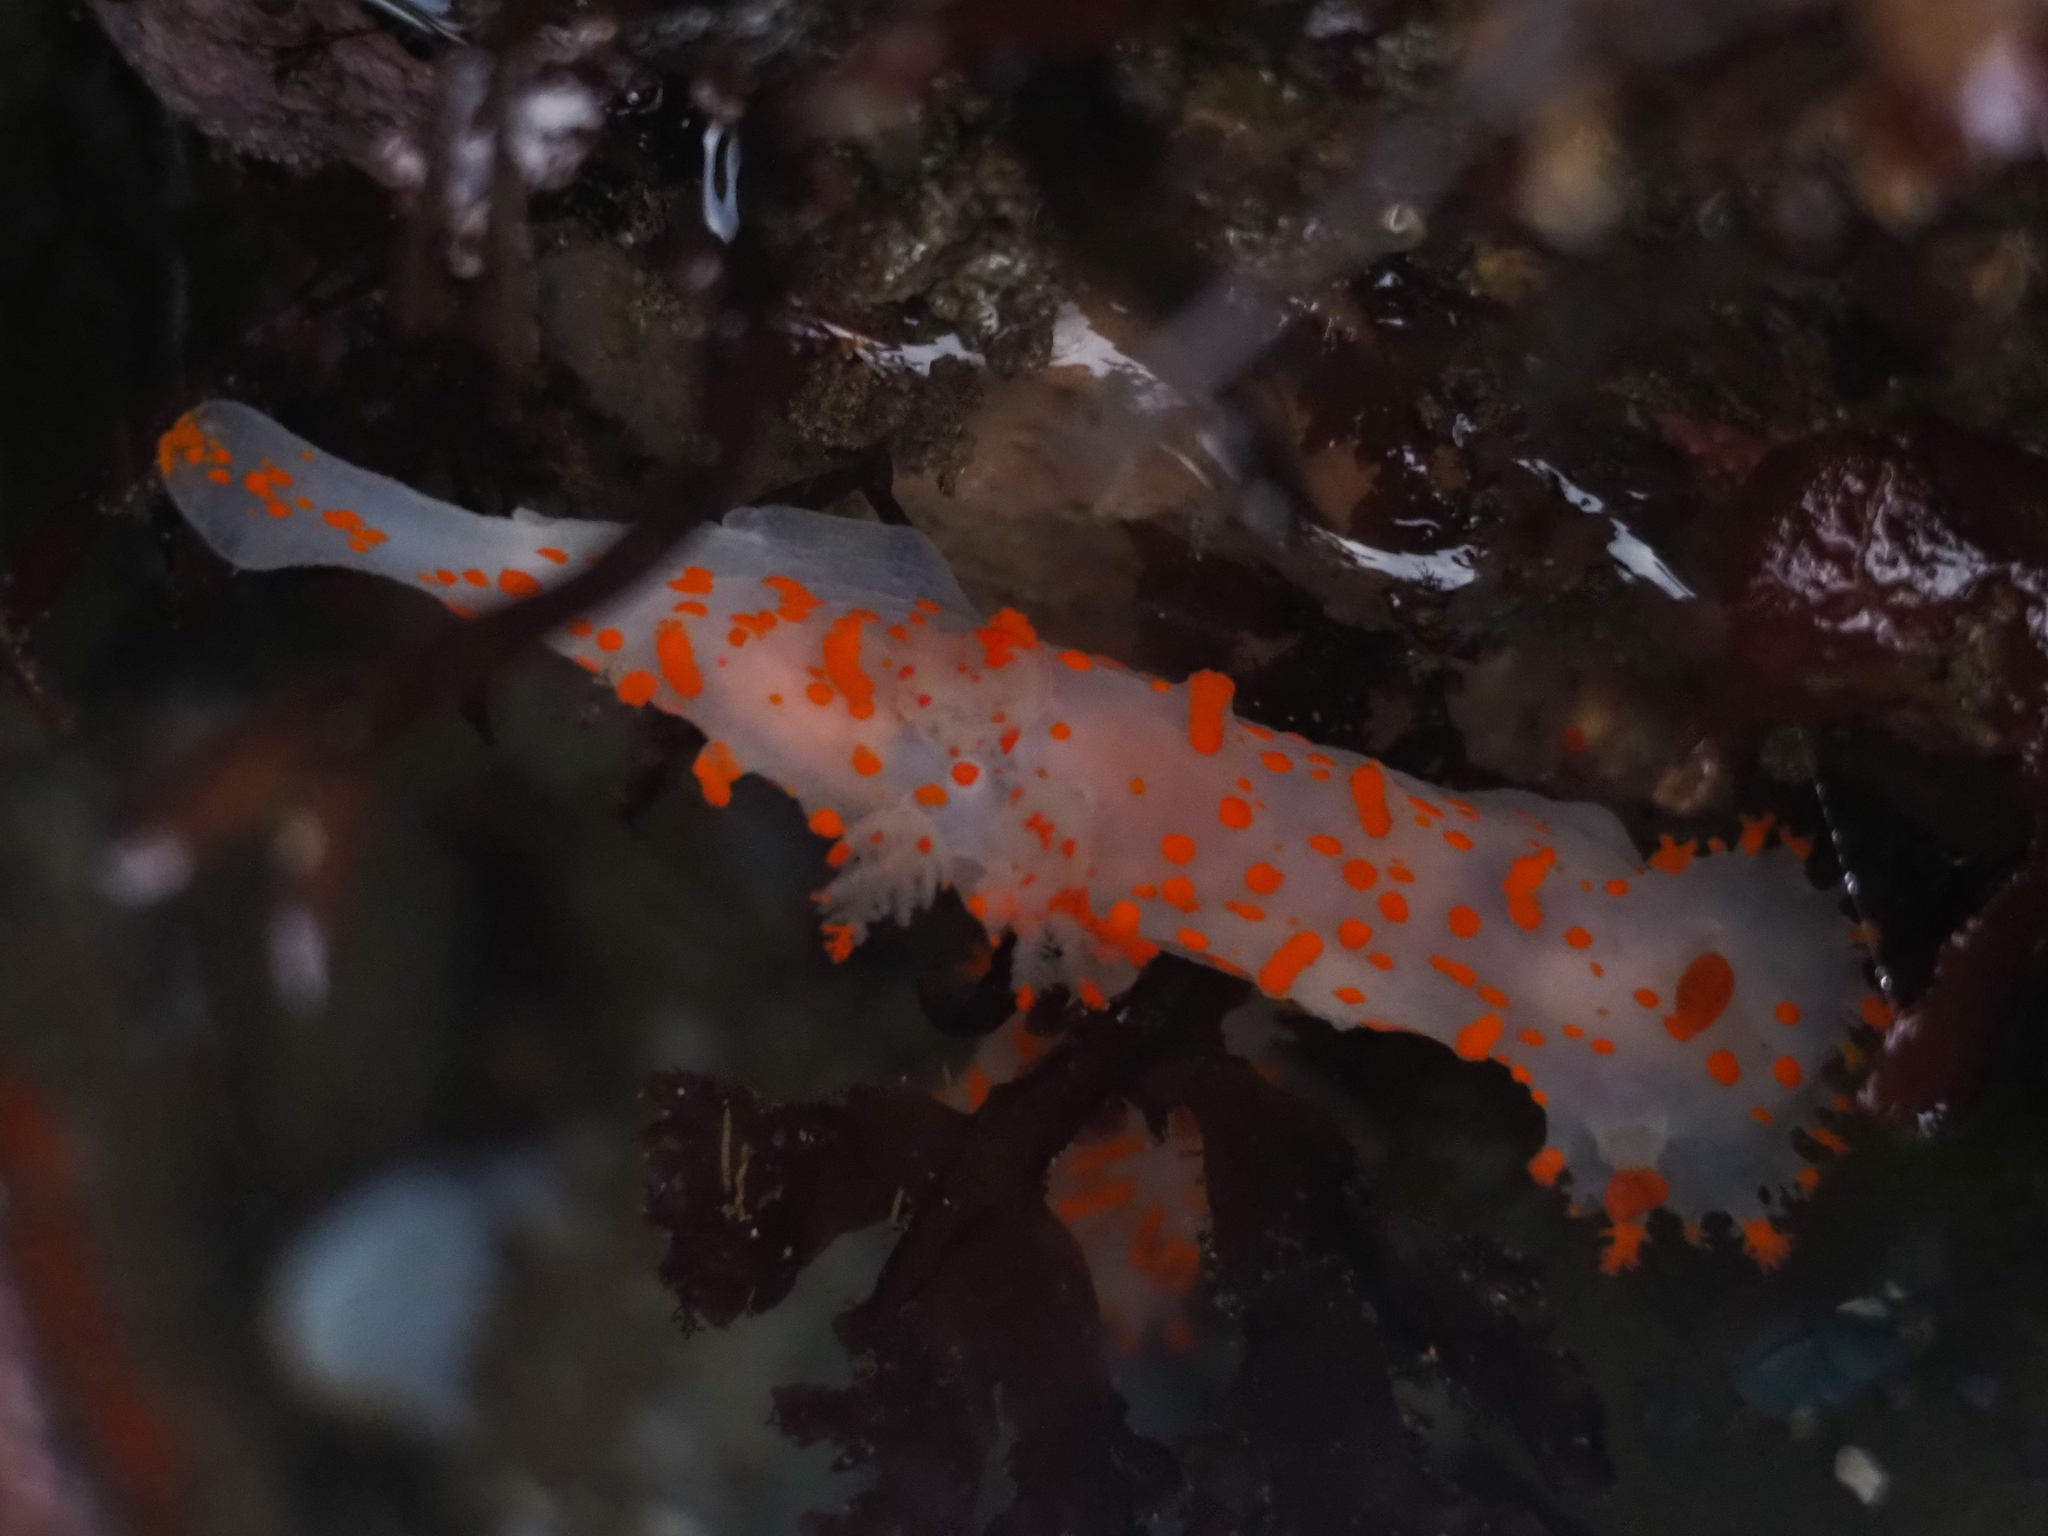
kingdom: Animalia
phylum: Mollusca
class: Gastropoda
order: Nudibranchia
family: Polyceridae
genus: Triopha
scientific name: Triopha catalinae
